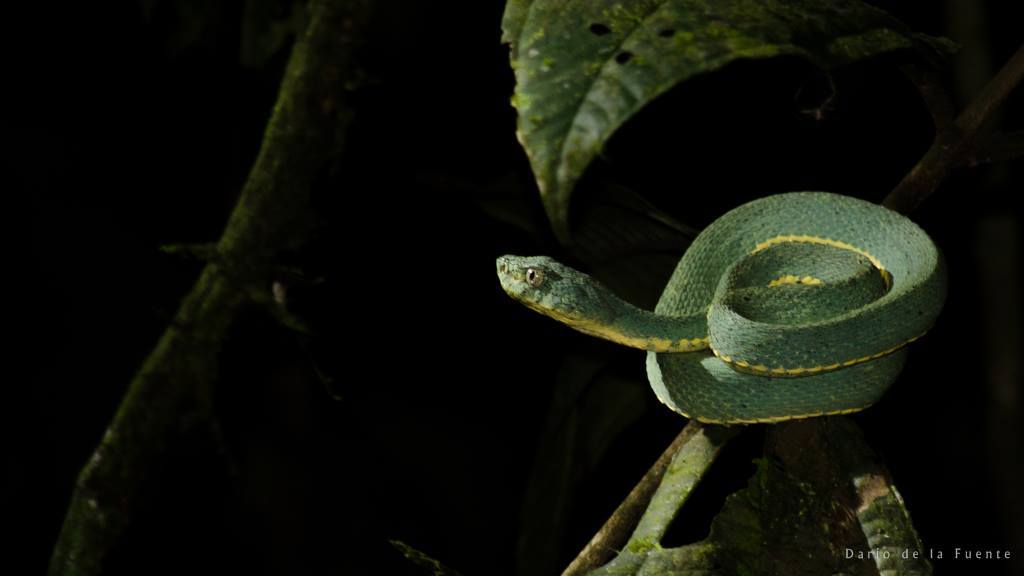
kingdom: Animalia
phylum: Chordata
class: Squamata
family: Viperidae
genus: Bothrops
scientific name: Bothrops bilineatus
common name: Green jararaca
